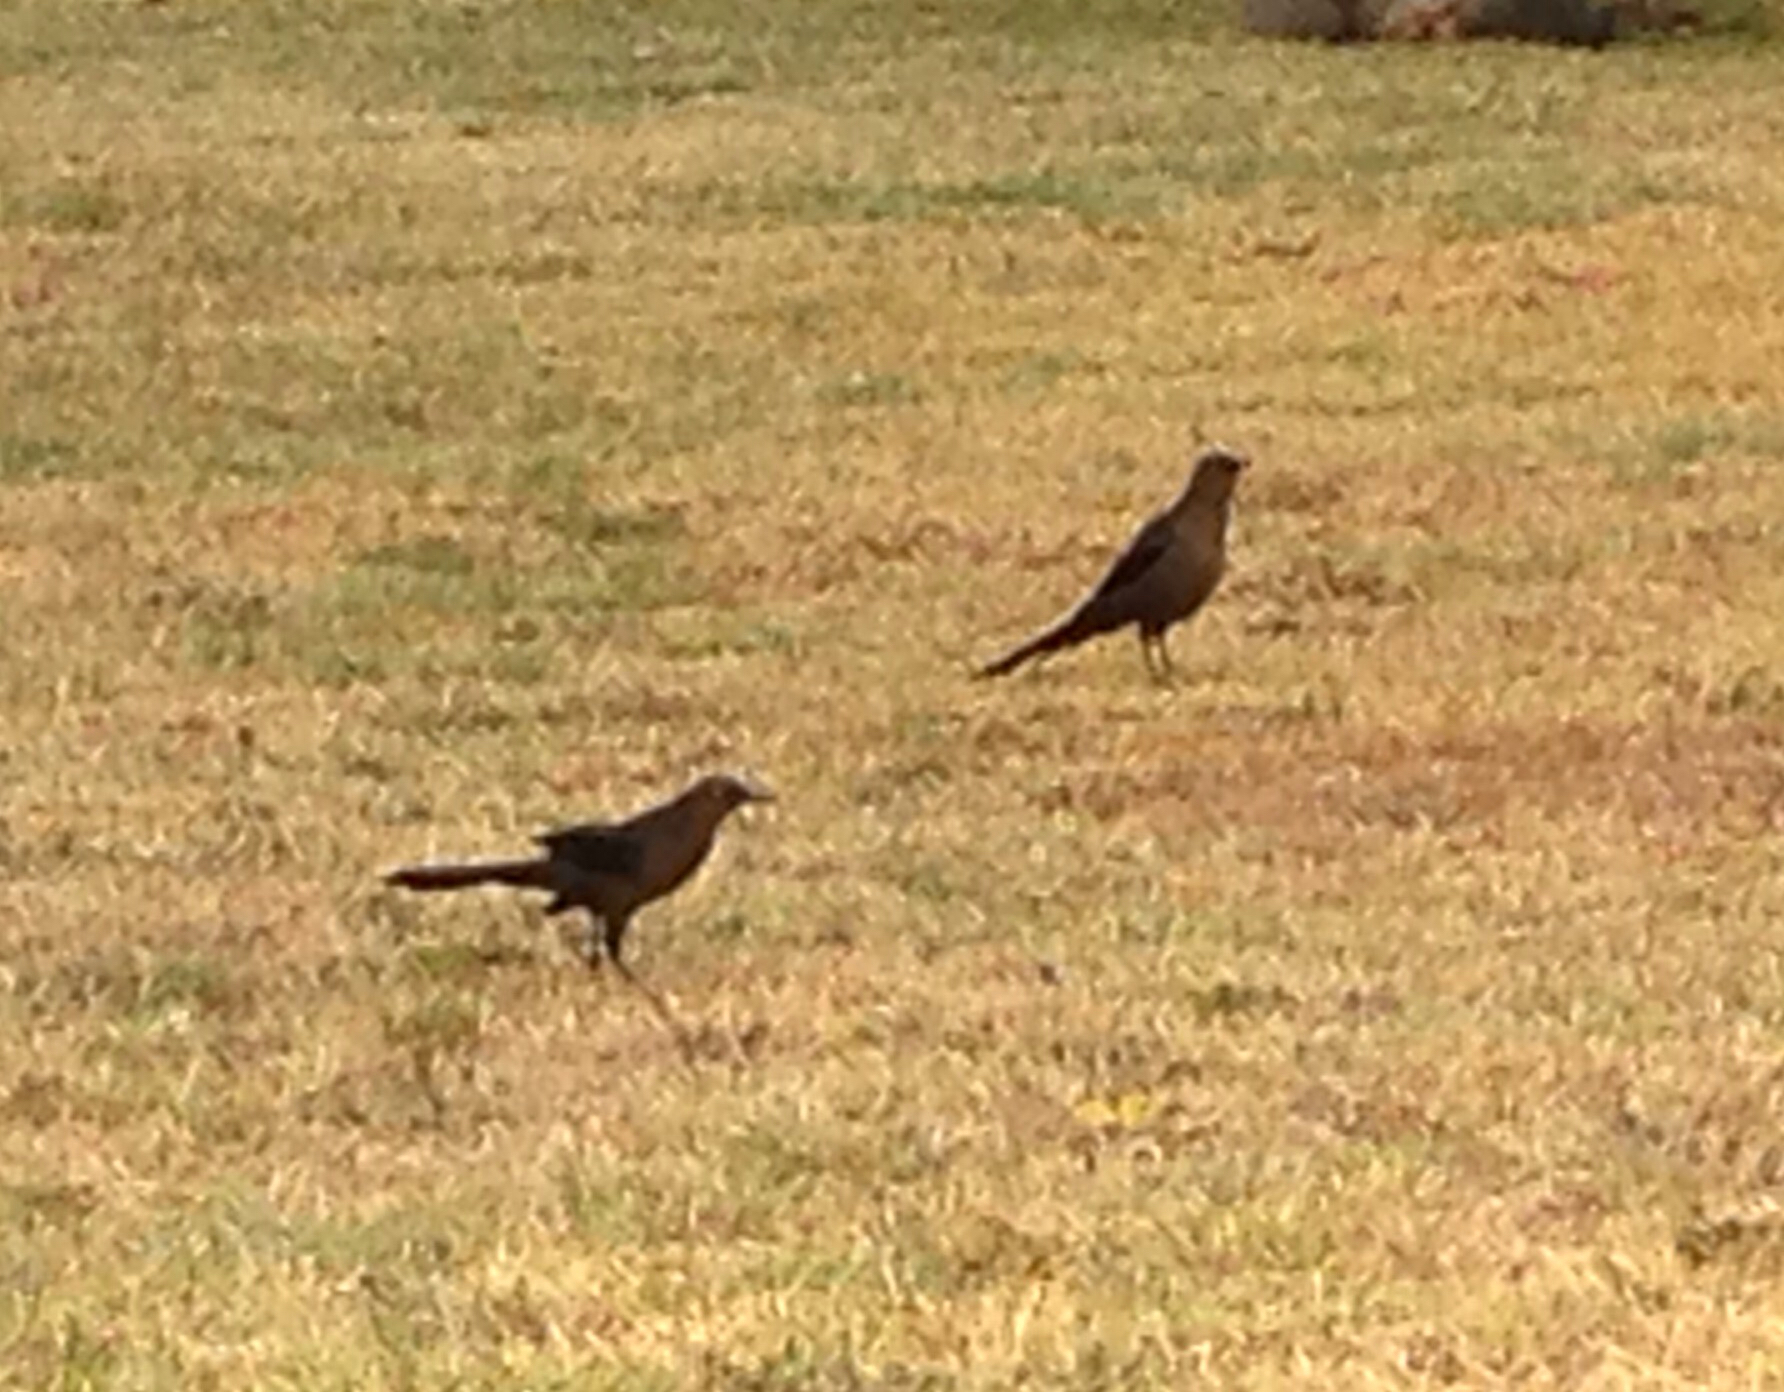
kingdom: Animalia
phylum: Chordata
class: Aves
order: Passeriformes
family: Icteridae
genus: Quiscalus
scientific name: Quiscalus mexicanus
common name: Great-tailed grackle
